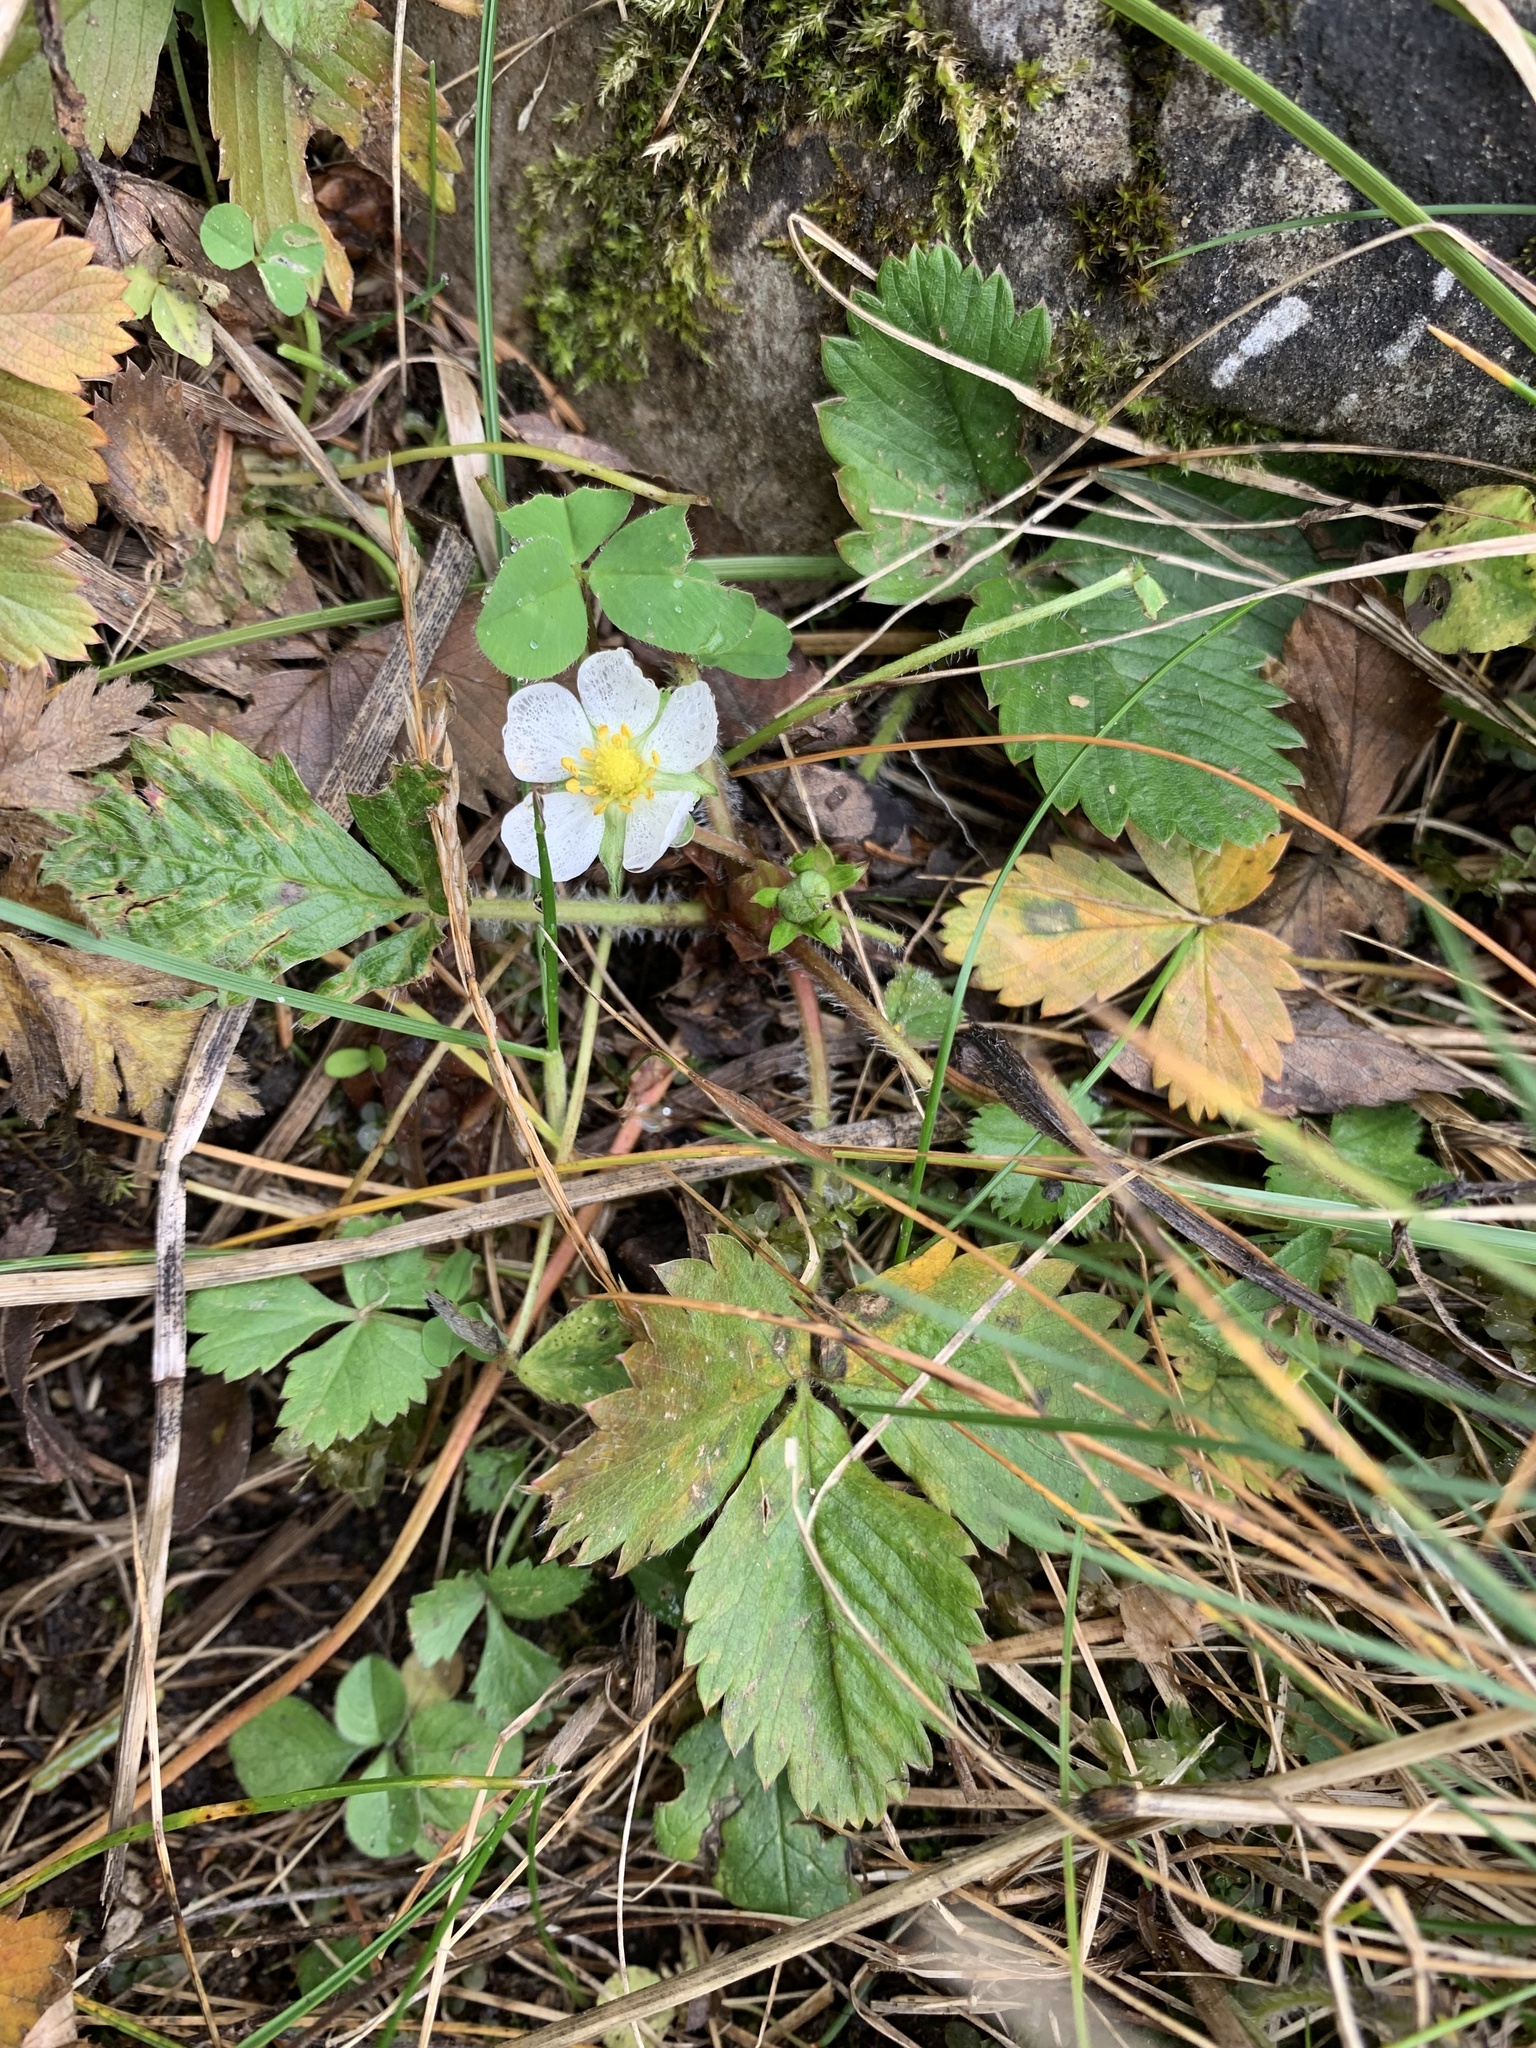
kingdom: Plantae
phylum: Tracheophyta
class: Magnoliopsida
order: Rosales
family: Rosaceae
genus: Fragaria
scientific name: Fragaria vesca
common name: Wild strawberry
